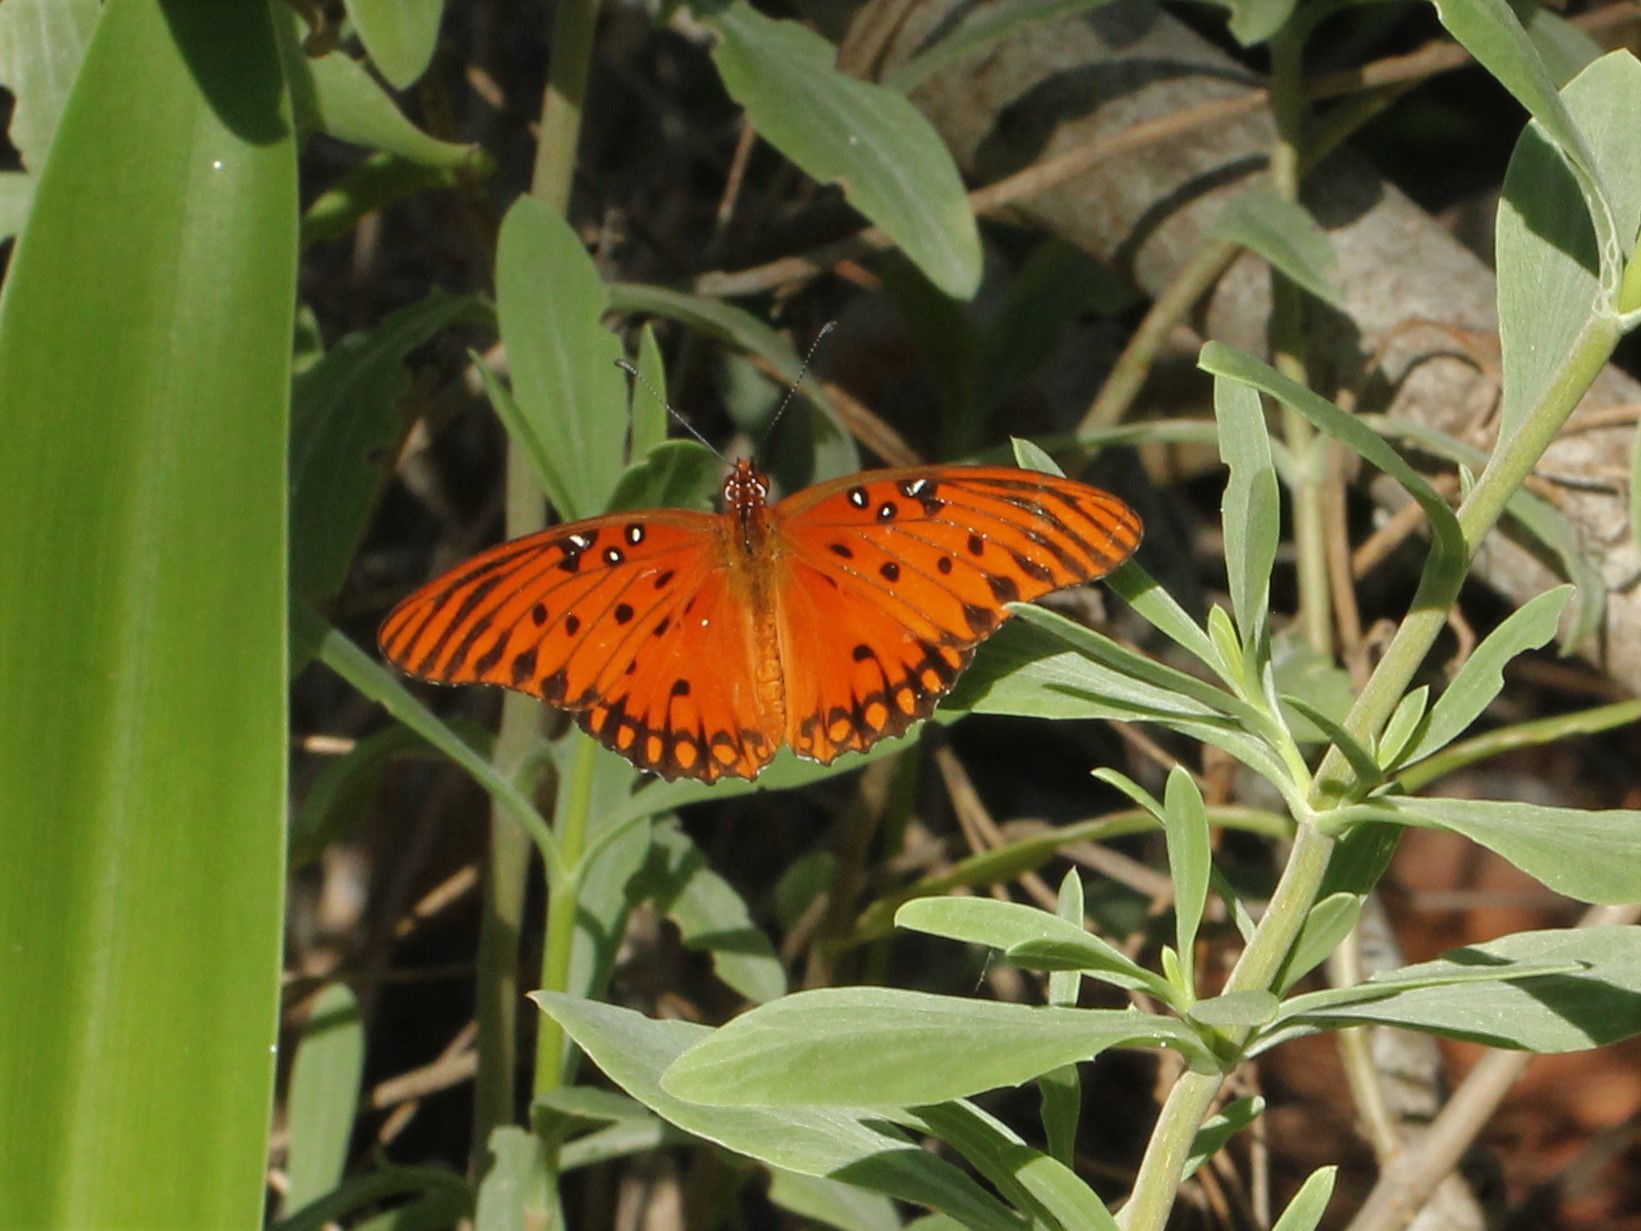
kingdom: Animalia
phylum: Arthropoda
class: Insecta
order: Lepidoptera
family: Nymphalidae
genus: Dione
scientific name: Dione vanillae
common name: Gulf fritillary
